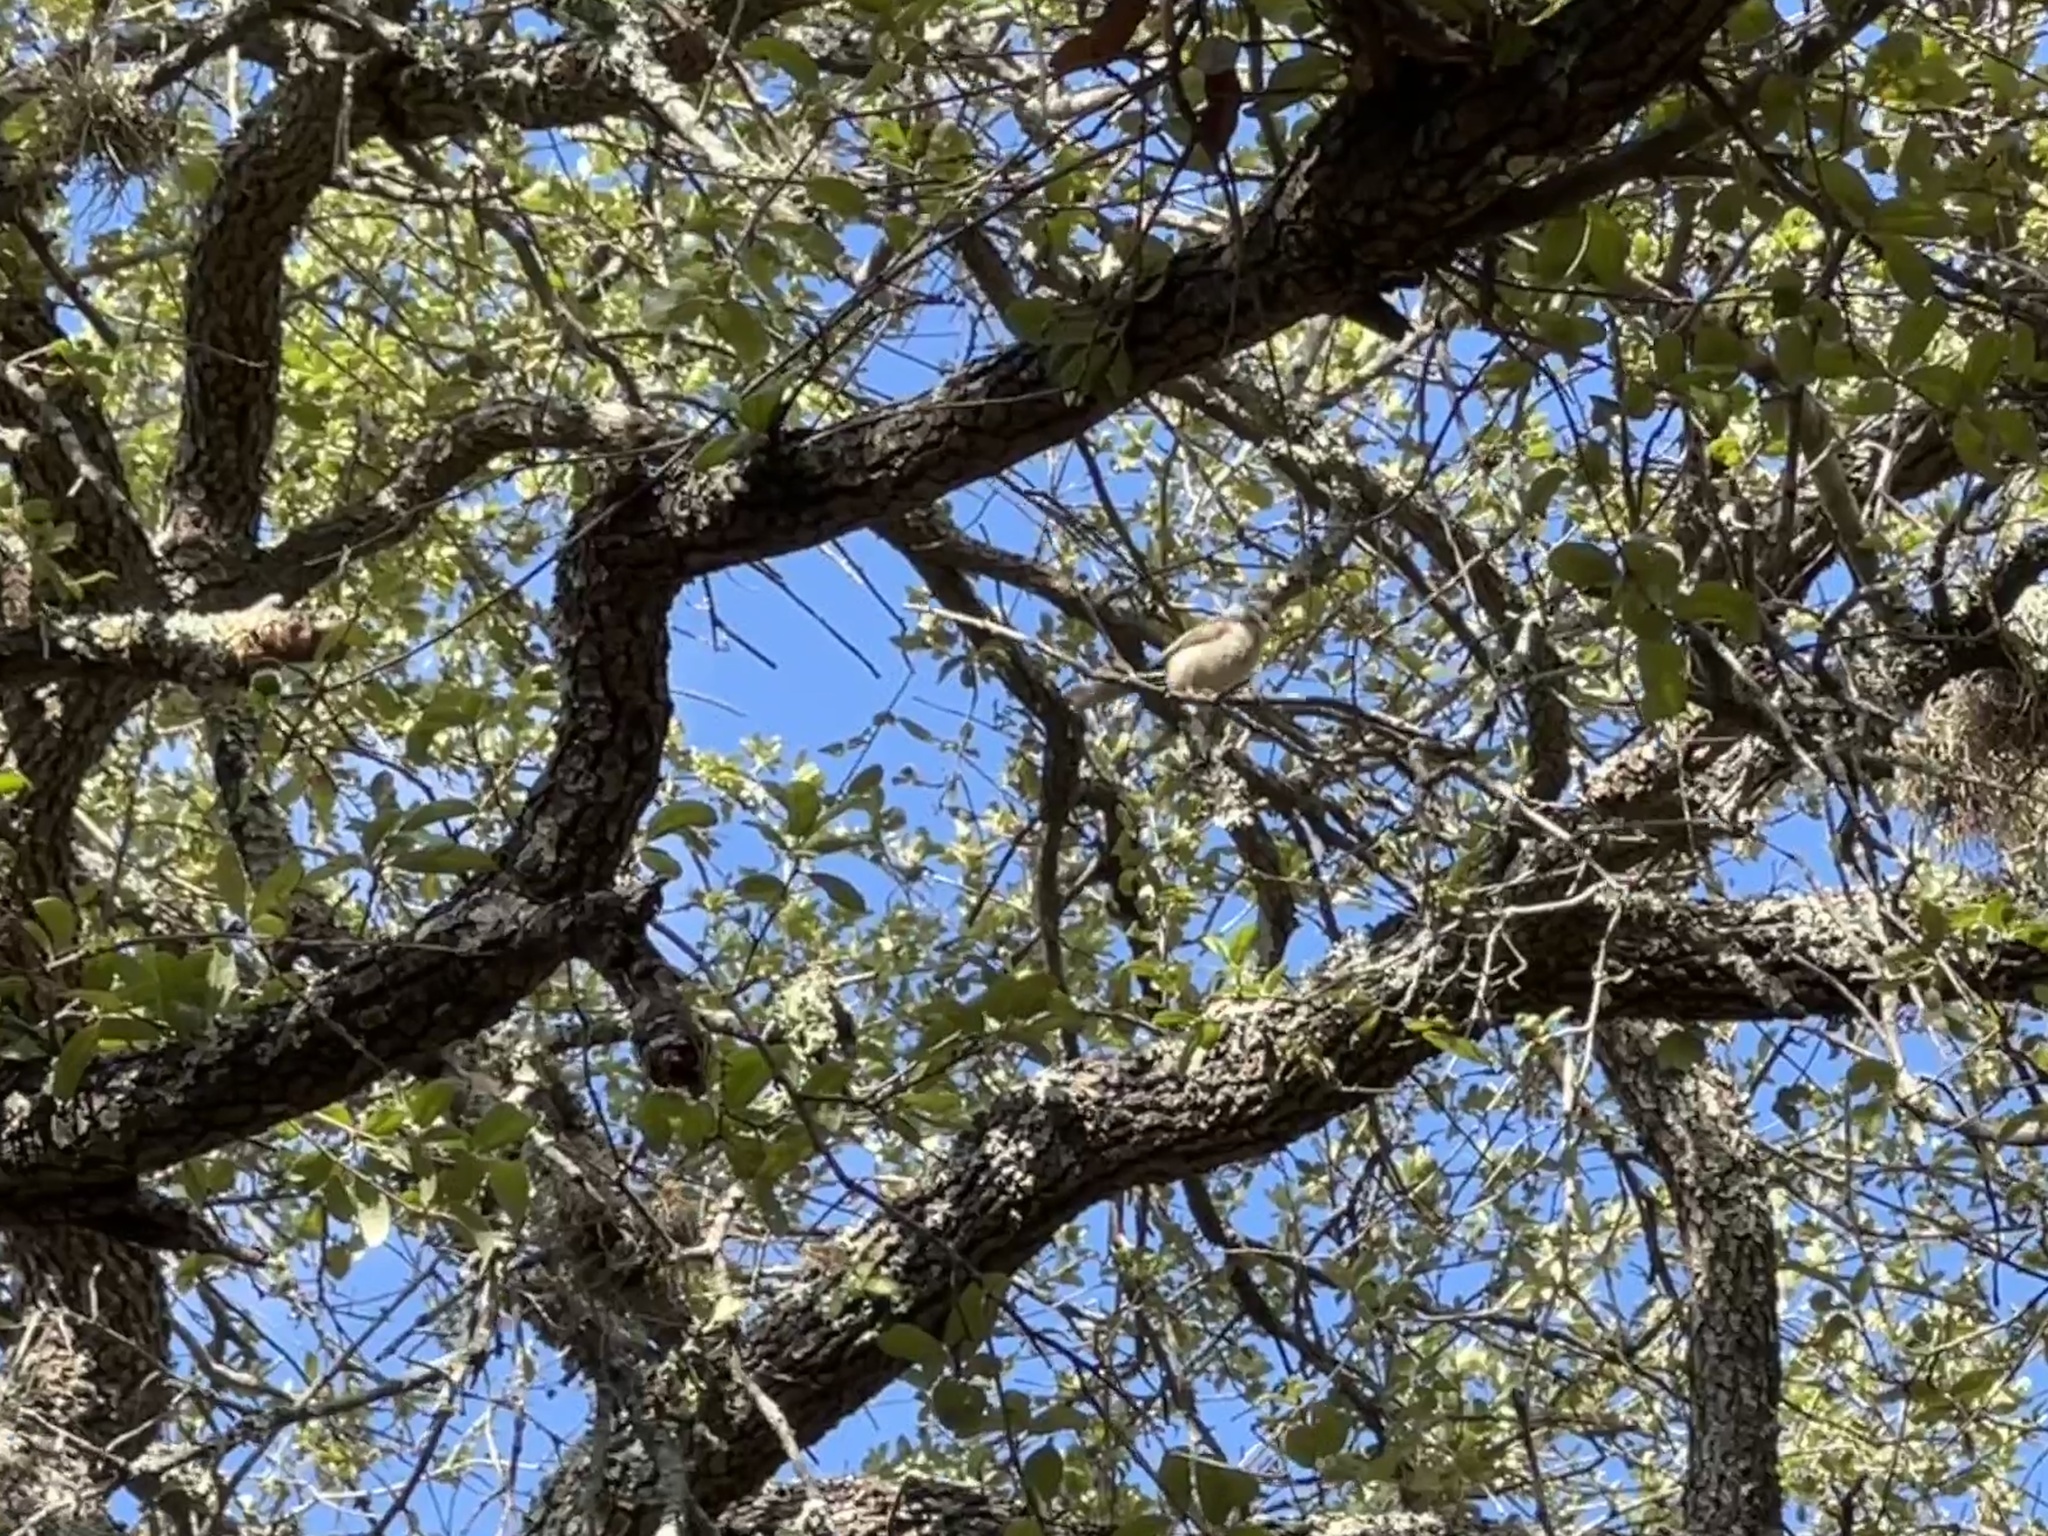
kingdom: Animalia
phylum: Chordata
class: Aves
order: Passeriformes
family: Paridae
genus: Baeolophus
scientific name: Baeolophus atricristatus
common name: Black-crested titmouse
